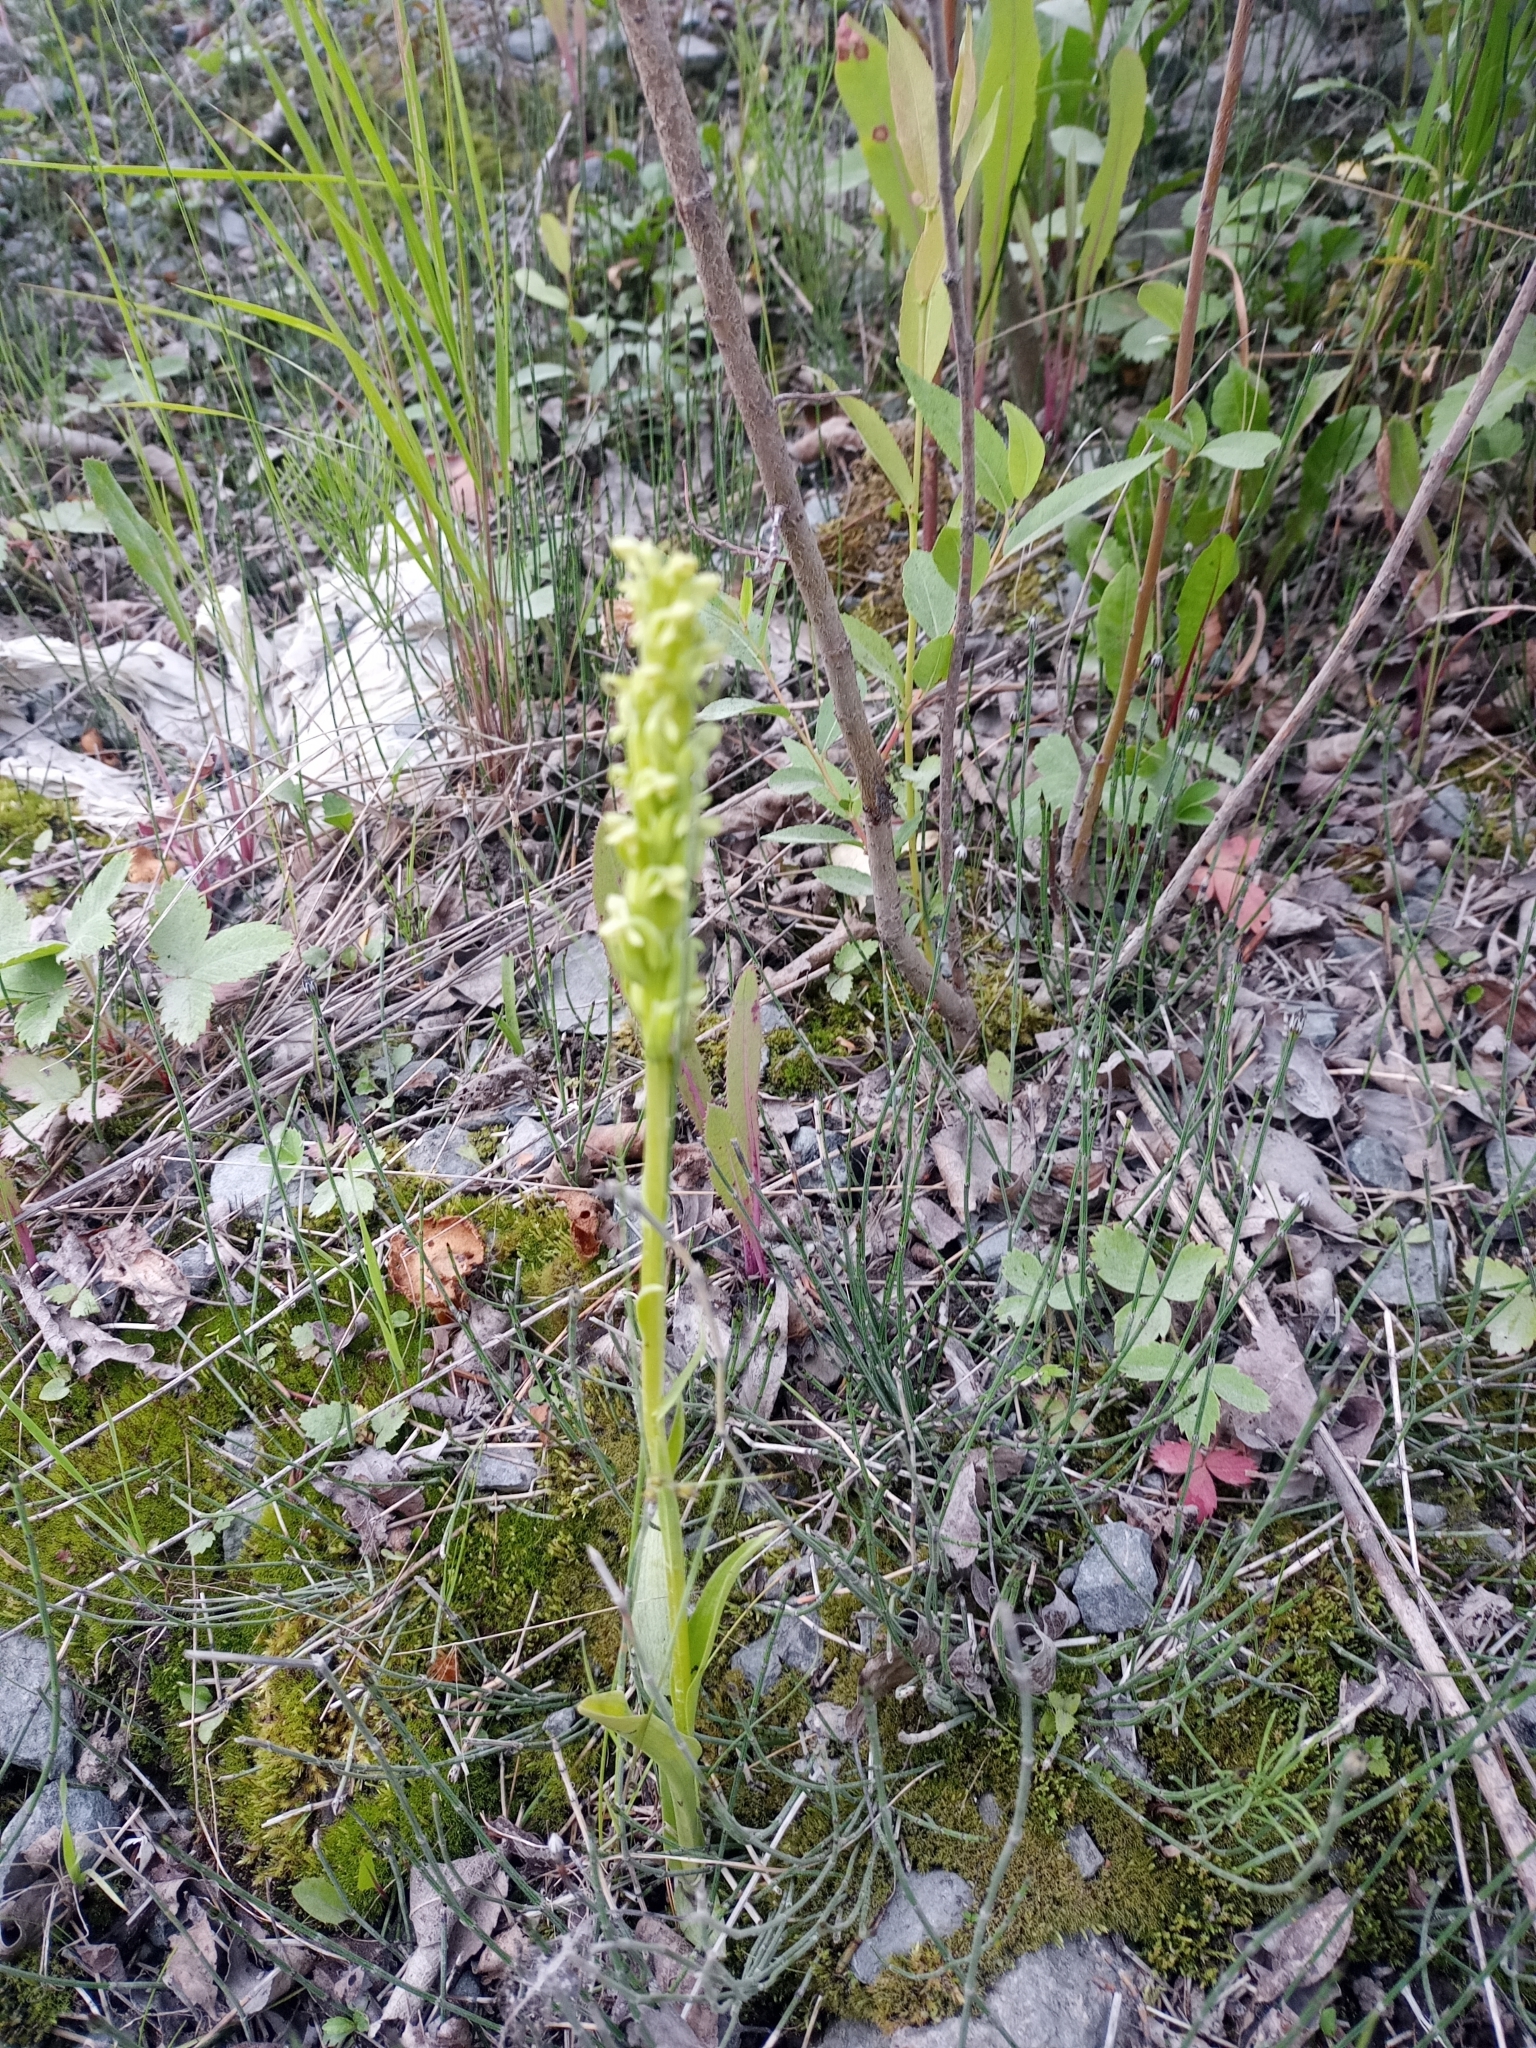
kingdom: Plantae
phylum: Tracheophyta
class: Liliopsida
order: Asparagales
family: Orchidaceae
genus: Platanthera
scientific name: Platanthera aquilonis
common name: Northern green orchid
